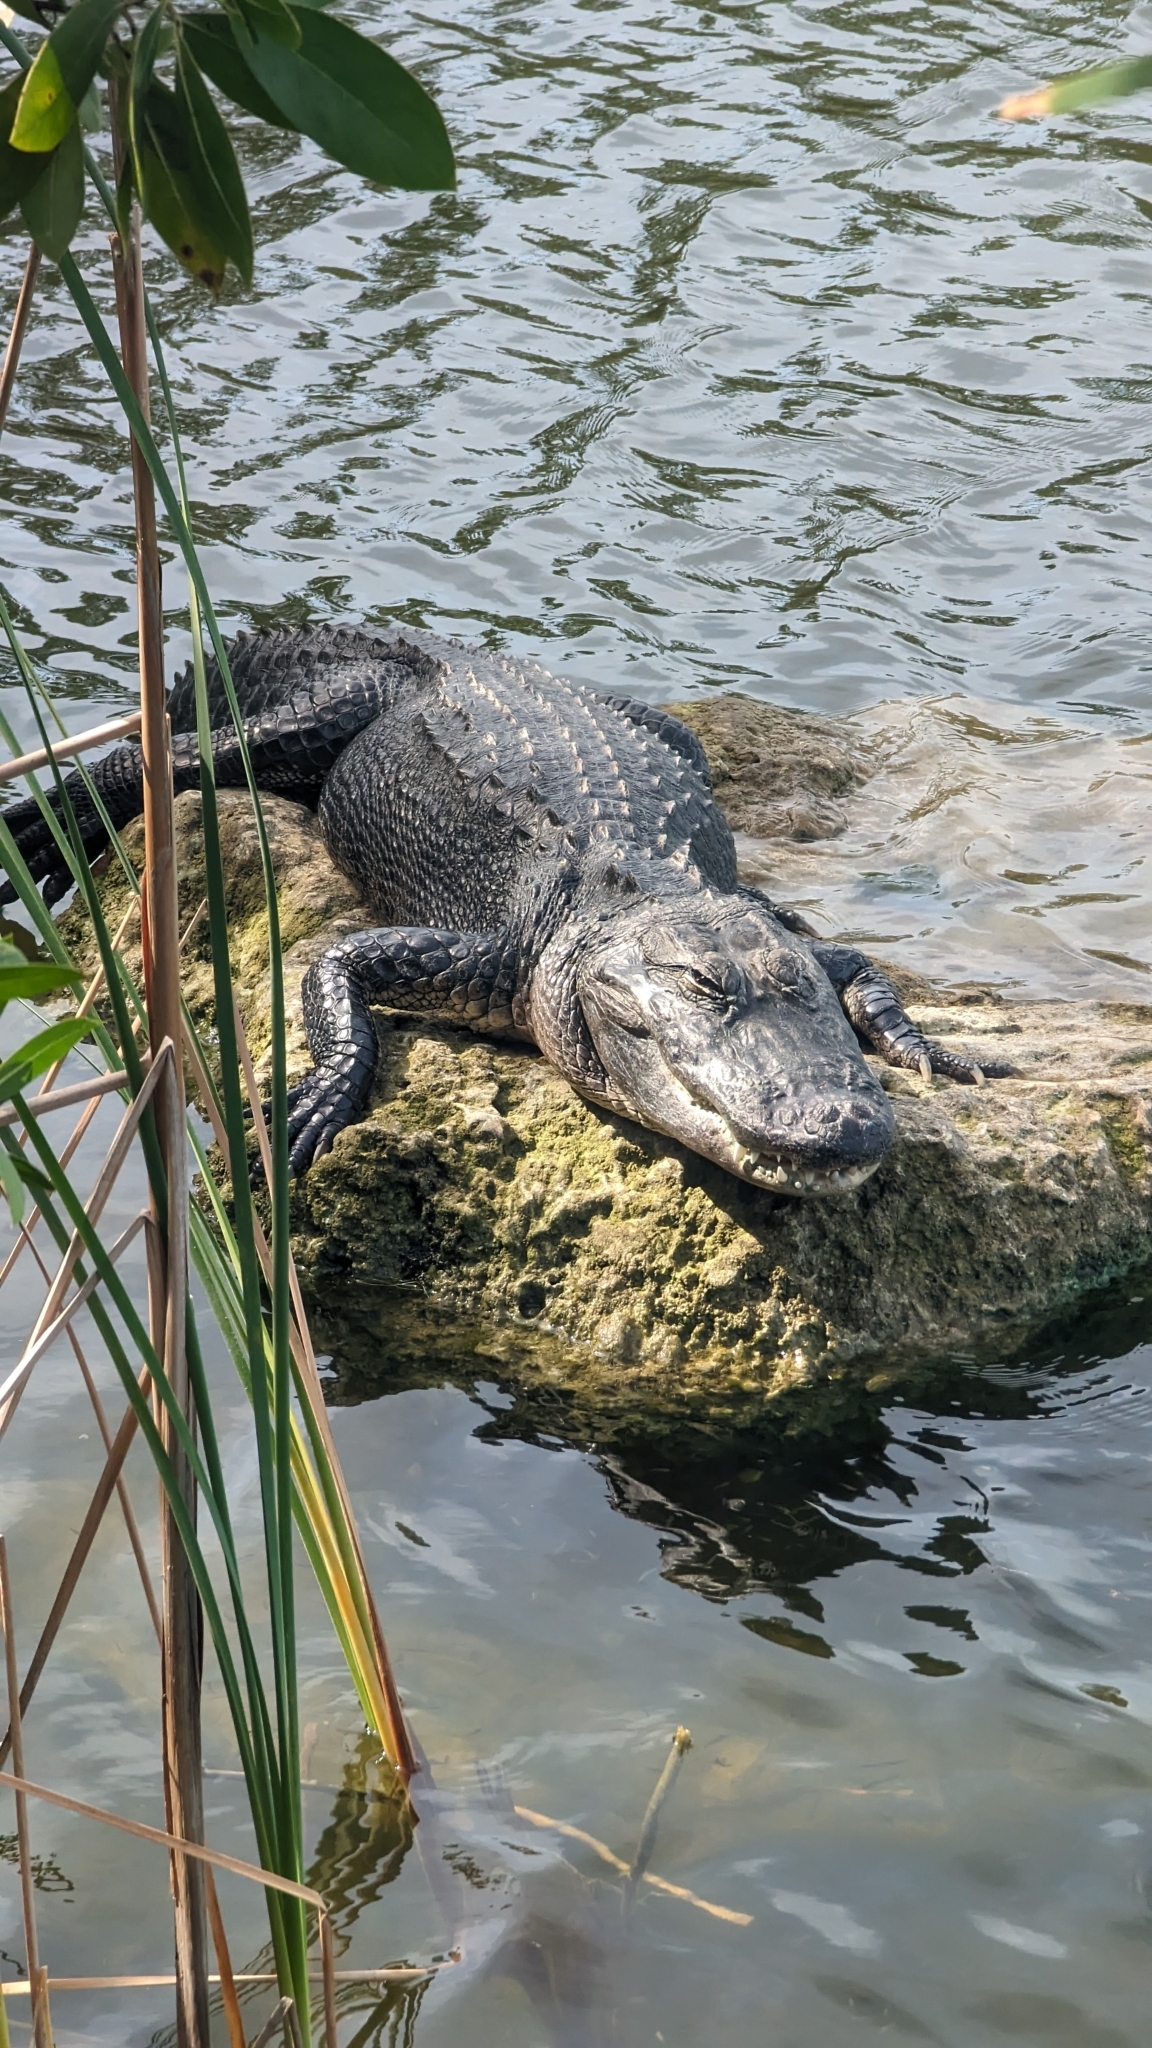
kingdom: Animalia
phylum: Chordata
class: Crocodylia
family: Alligatoridae
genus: Alligator
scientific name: Alligator mississippiensis
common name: American alligator
